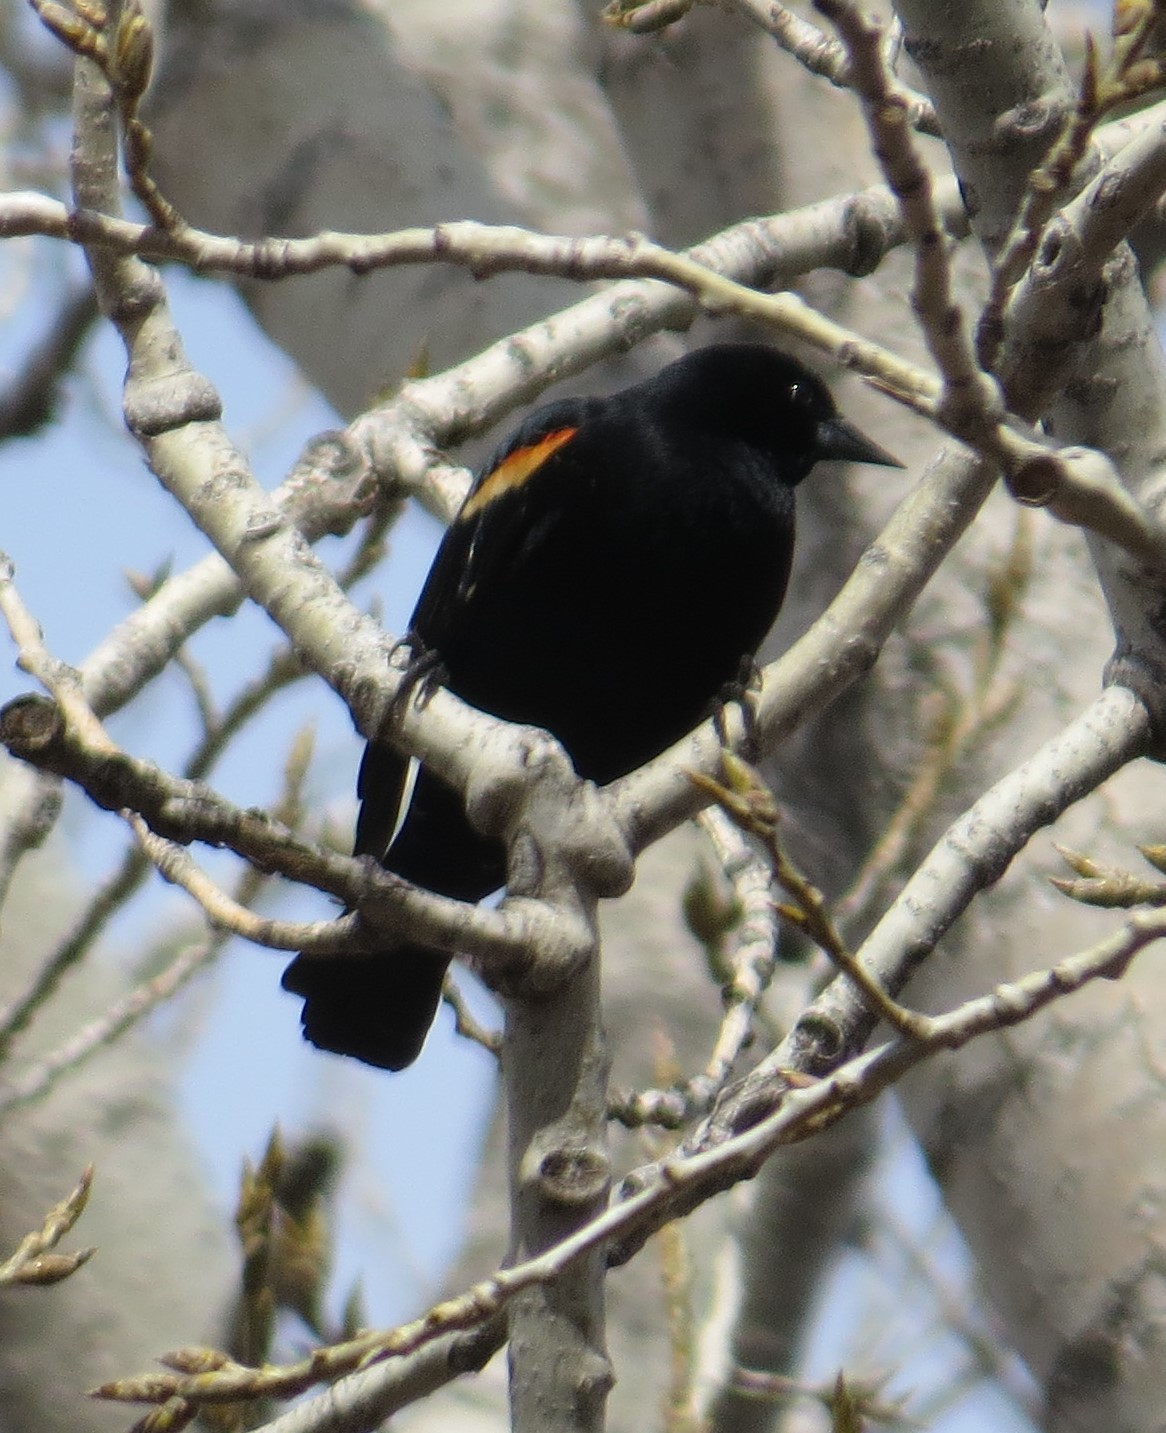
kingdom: Animalia
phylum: Chordata
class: Aves
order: Passeriformes
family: Icteridae
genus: Agelaius
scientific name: Agelaius phoeniceus
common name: Red-winged blackbird
